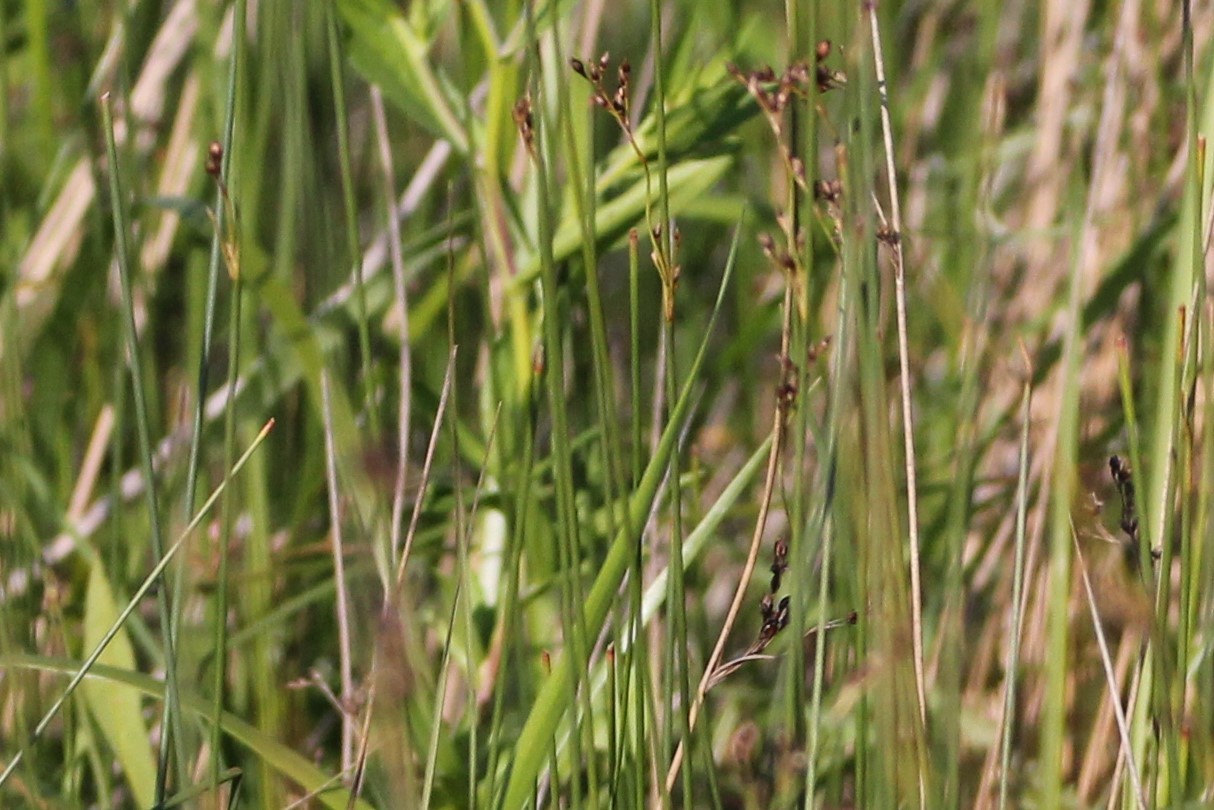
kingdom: Plantae
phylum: Tracheophyta
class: Liliopsida
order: Poales
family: Juncaceae
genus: Juncus
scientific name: Juncus balticus
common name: Baltic rush
